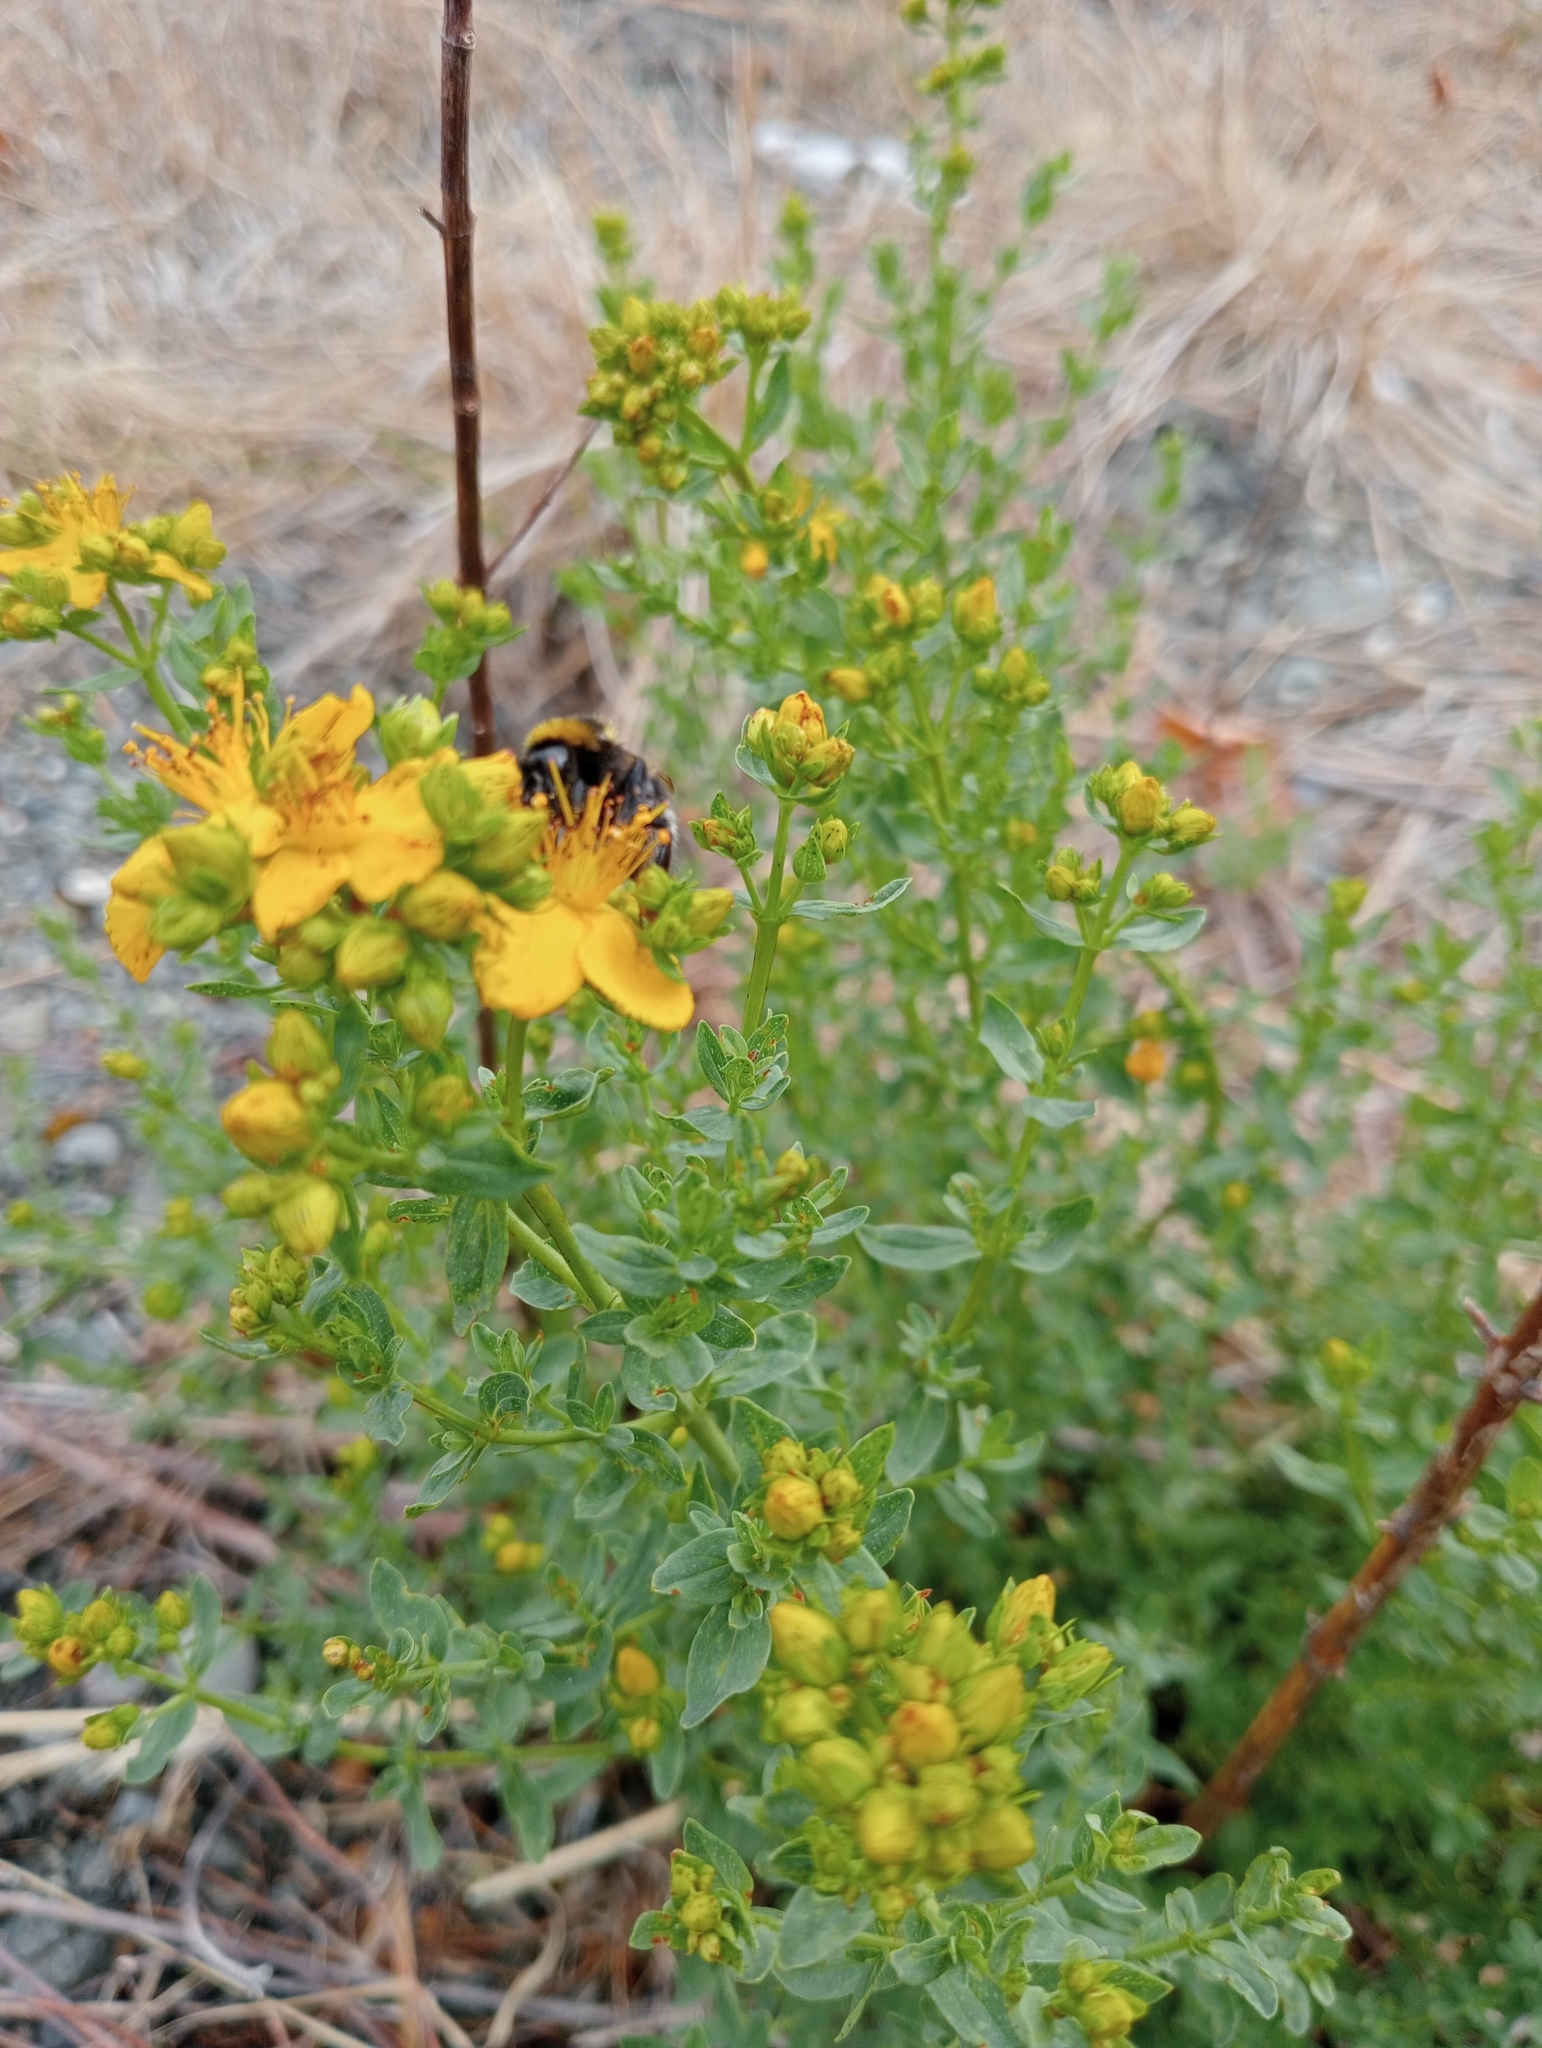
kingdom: Plantae
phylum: Tracheophyta
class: Magnoliopsida
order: Malpighiales
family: Hypericaceae
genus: Hypericum
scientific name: Hypericum perforatum
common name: Common st. johnswort
